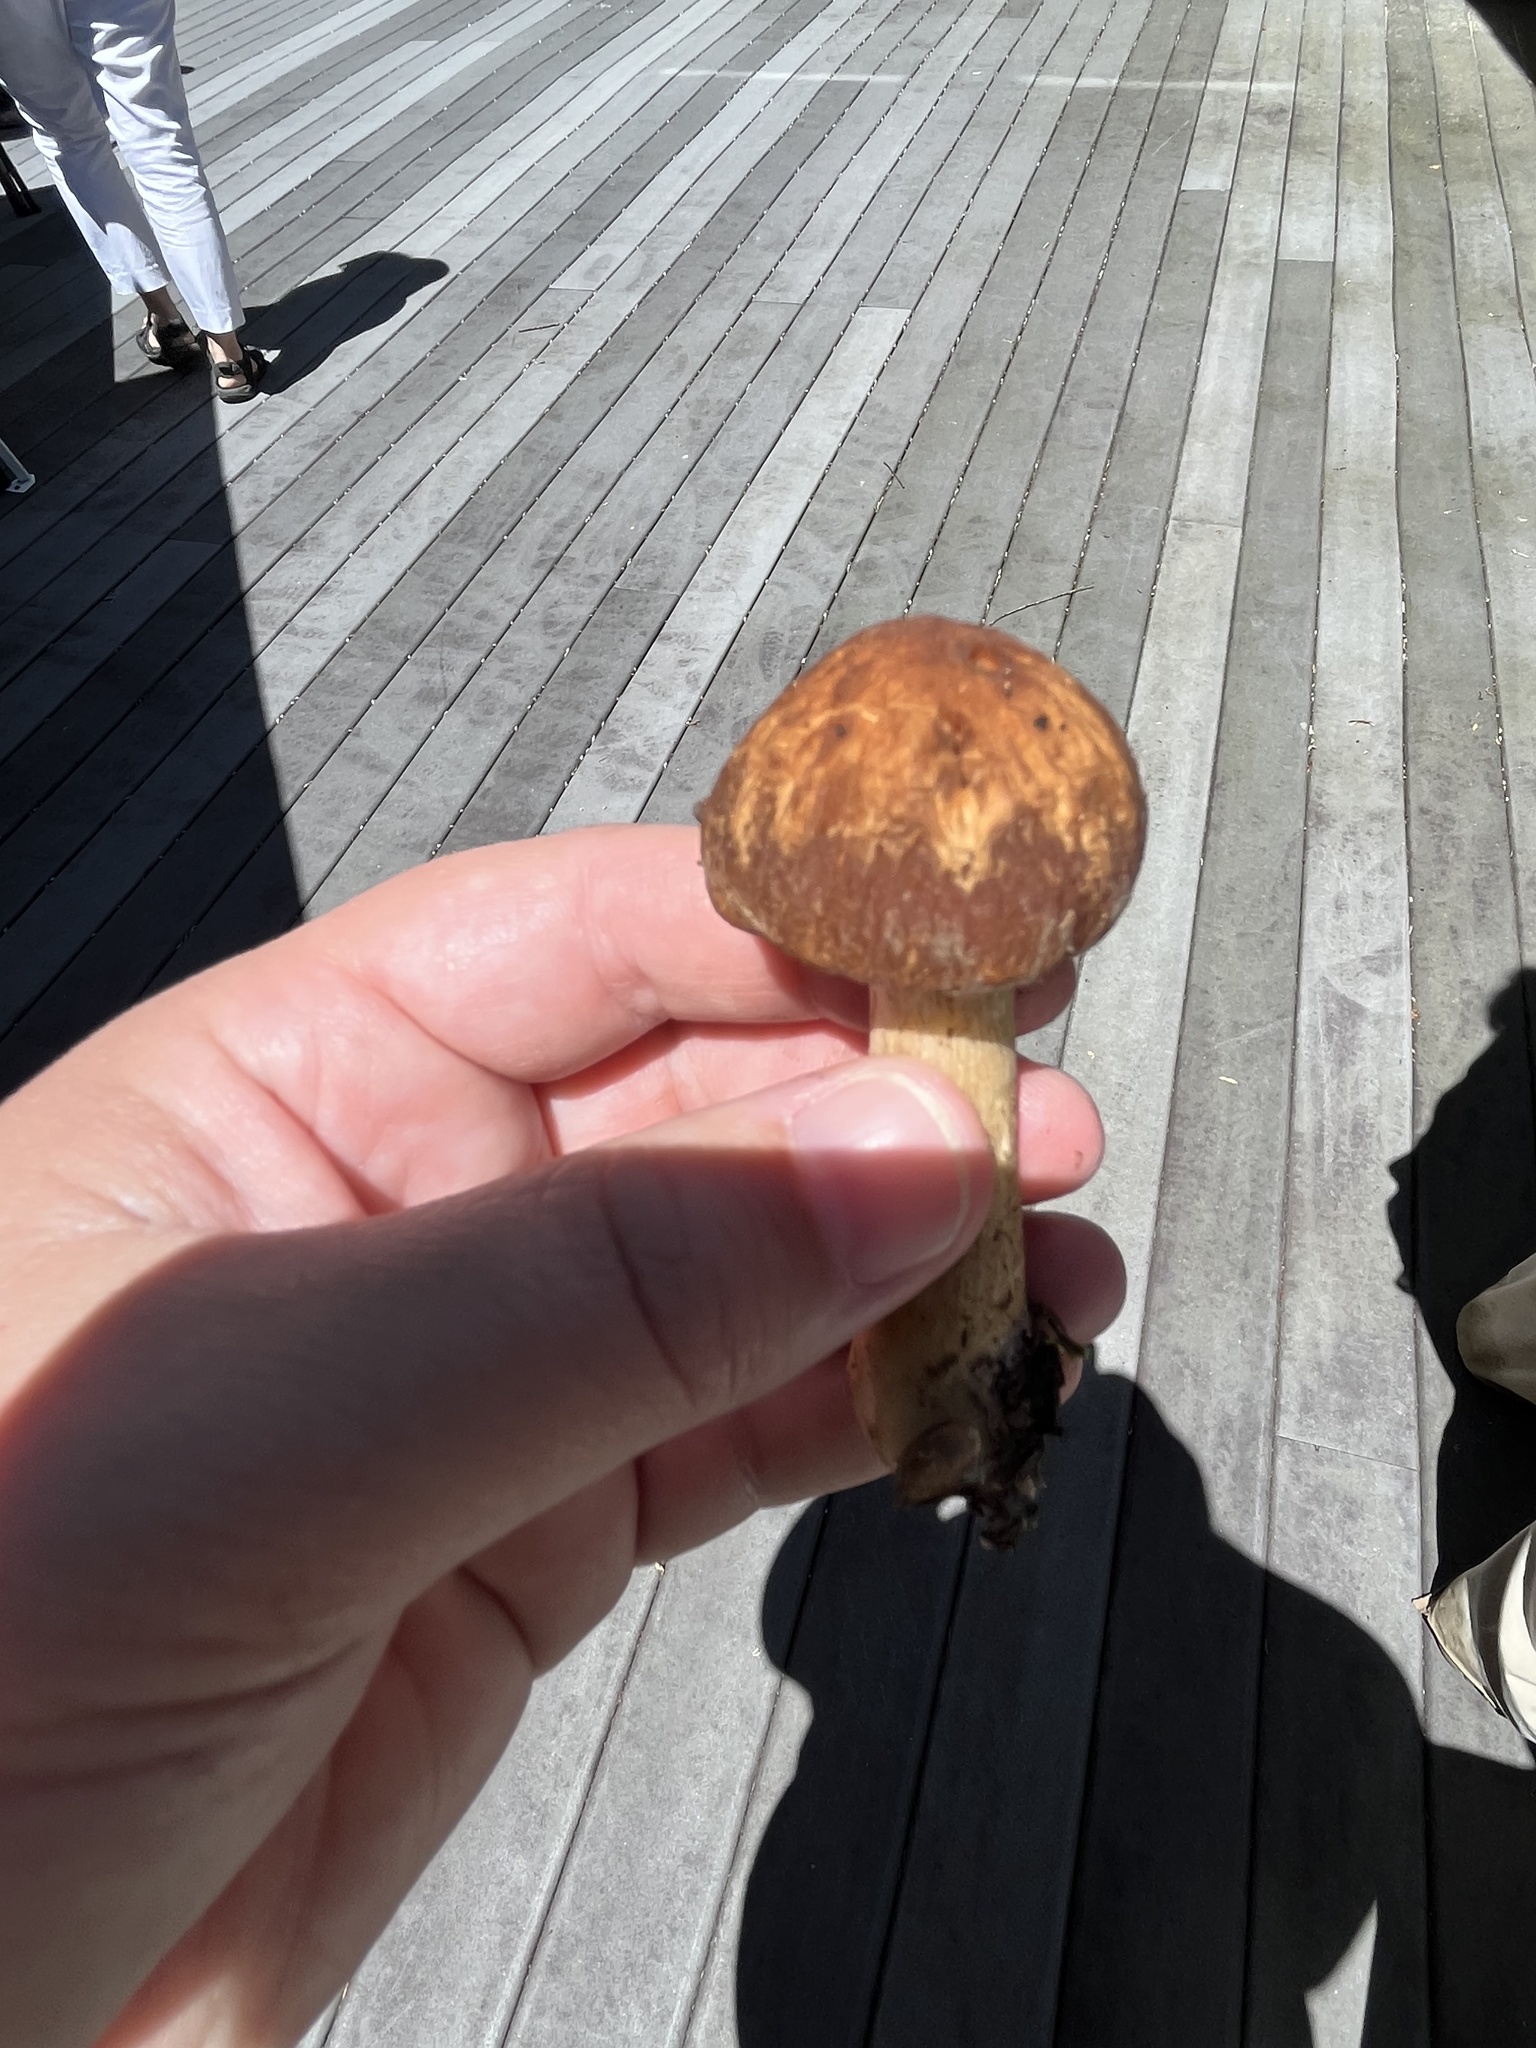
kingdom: Fungi
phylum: Basidiomycota
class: Agaricomycetes
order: Agaricales
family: Psathyrellaceae
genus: Typhrasa
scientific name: Typhrasa gossypina
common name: Wrinkled psathyrella
